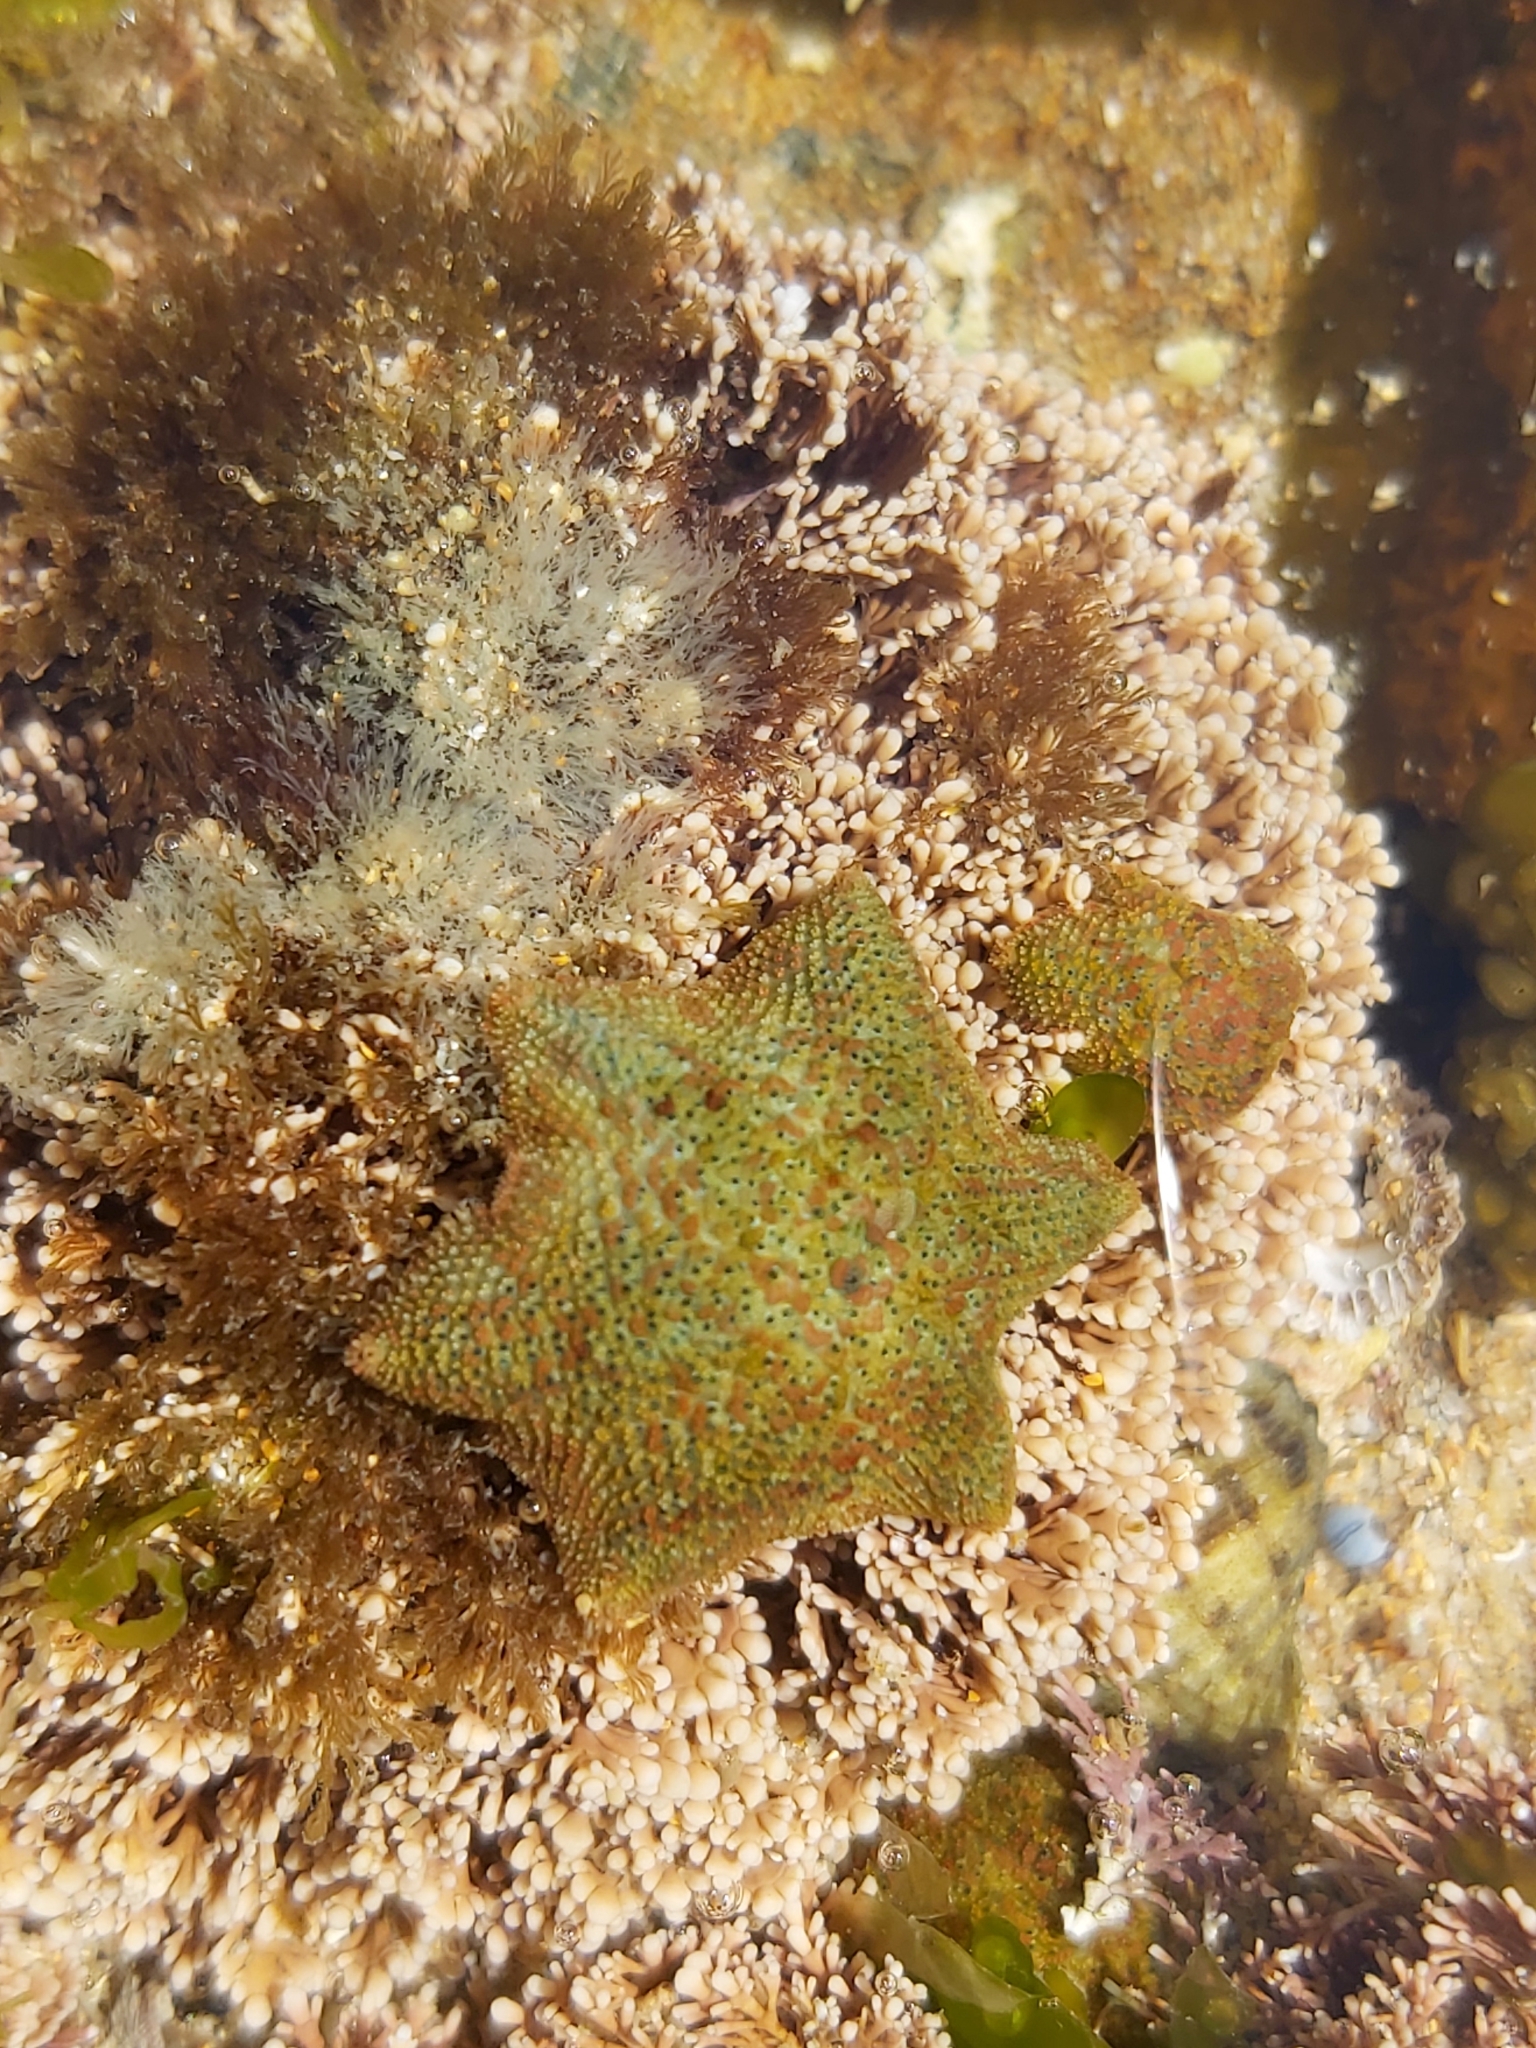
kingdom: Animalia
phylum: Echinodermata
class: Asteroidea
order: Valvatida
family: Asterinidae
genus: Parvulastra
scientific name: Parvulastra exigua
